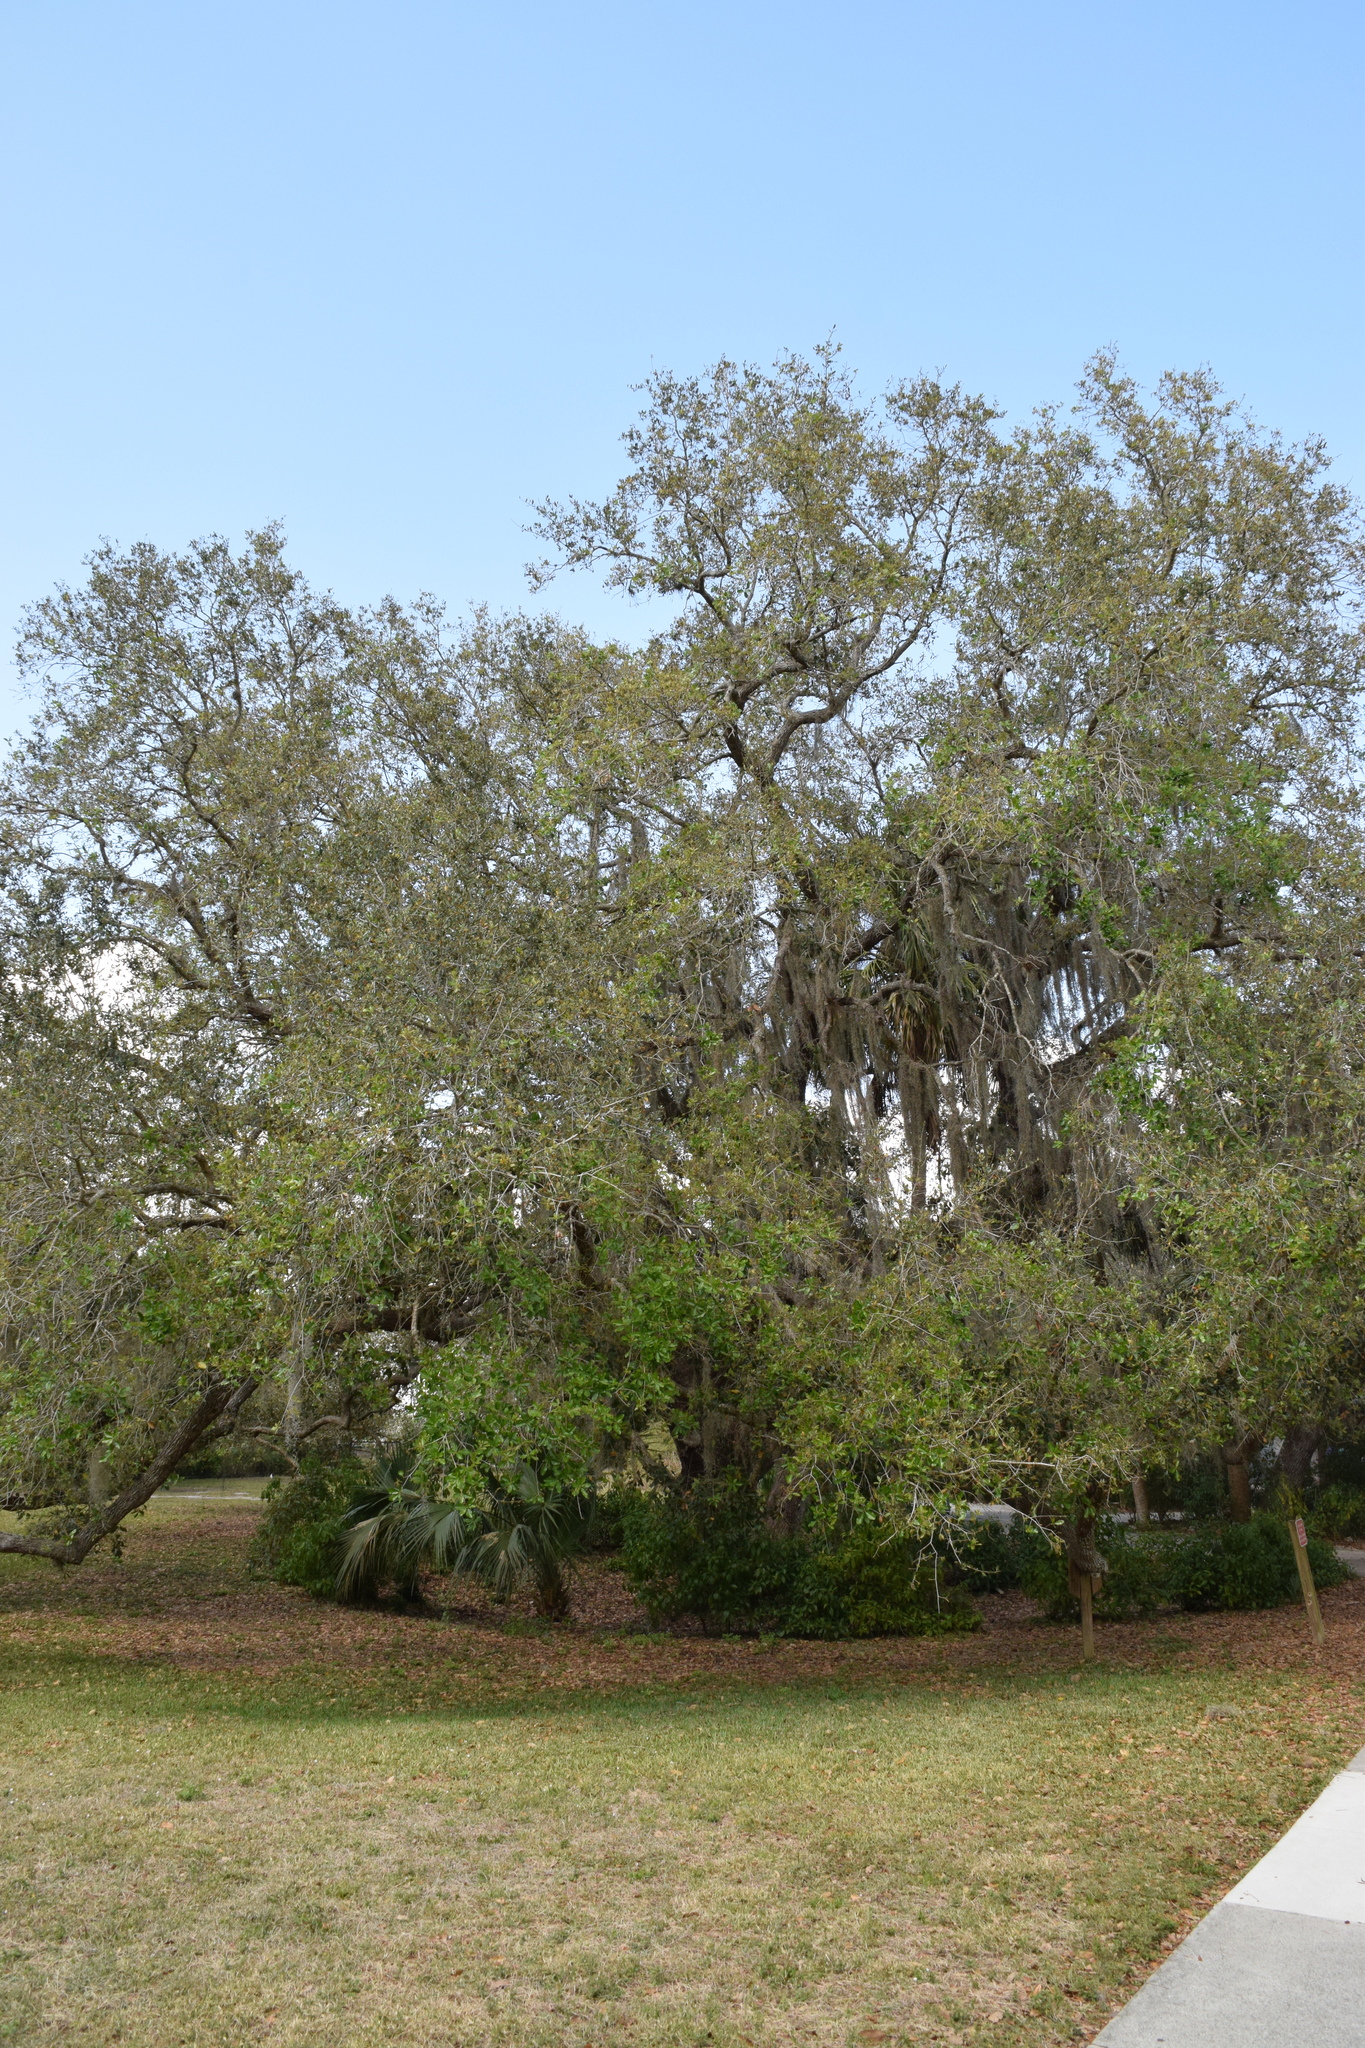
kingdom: Plantae
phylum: Tracheophyta
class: Magnoliopsida
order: Fagales
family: Fagaceae
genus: Quercus
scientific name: Quercus virginiana
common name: Southern live oak
